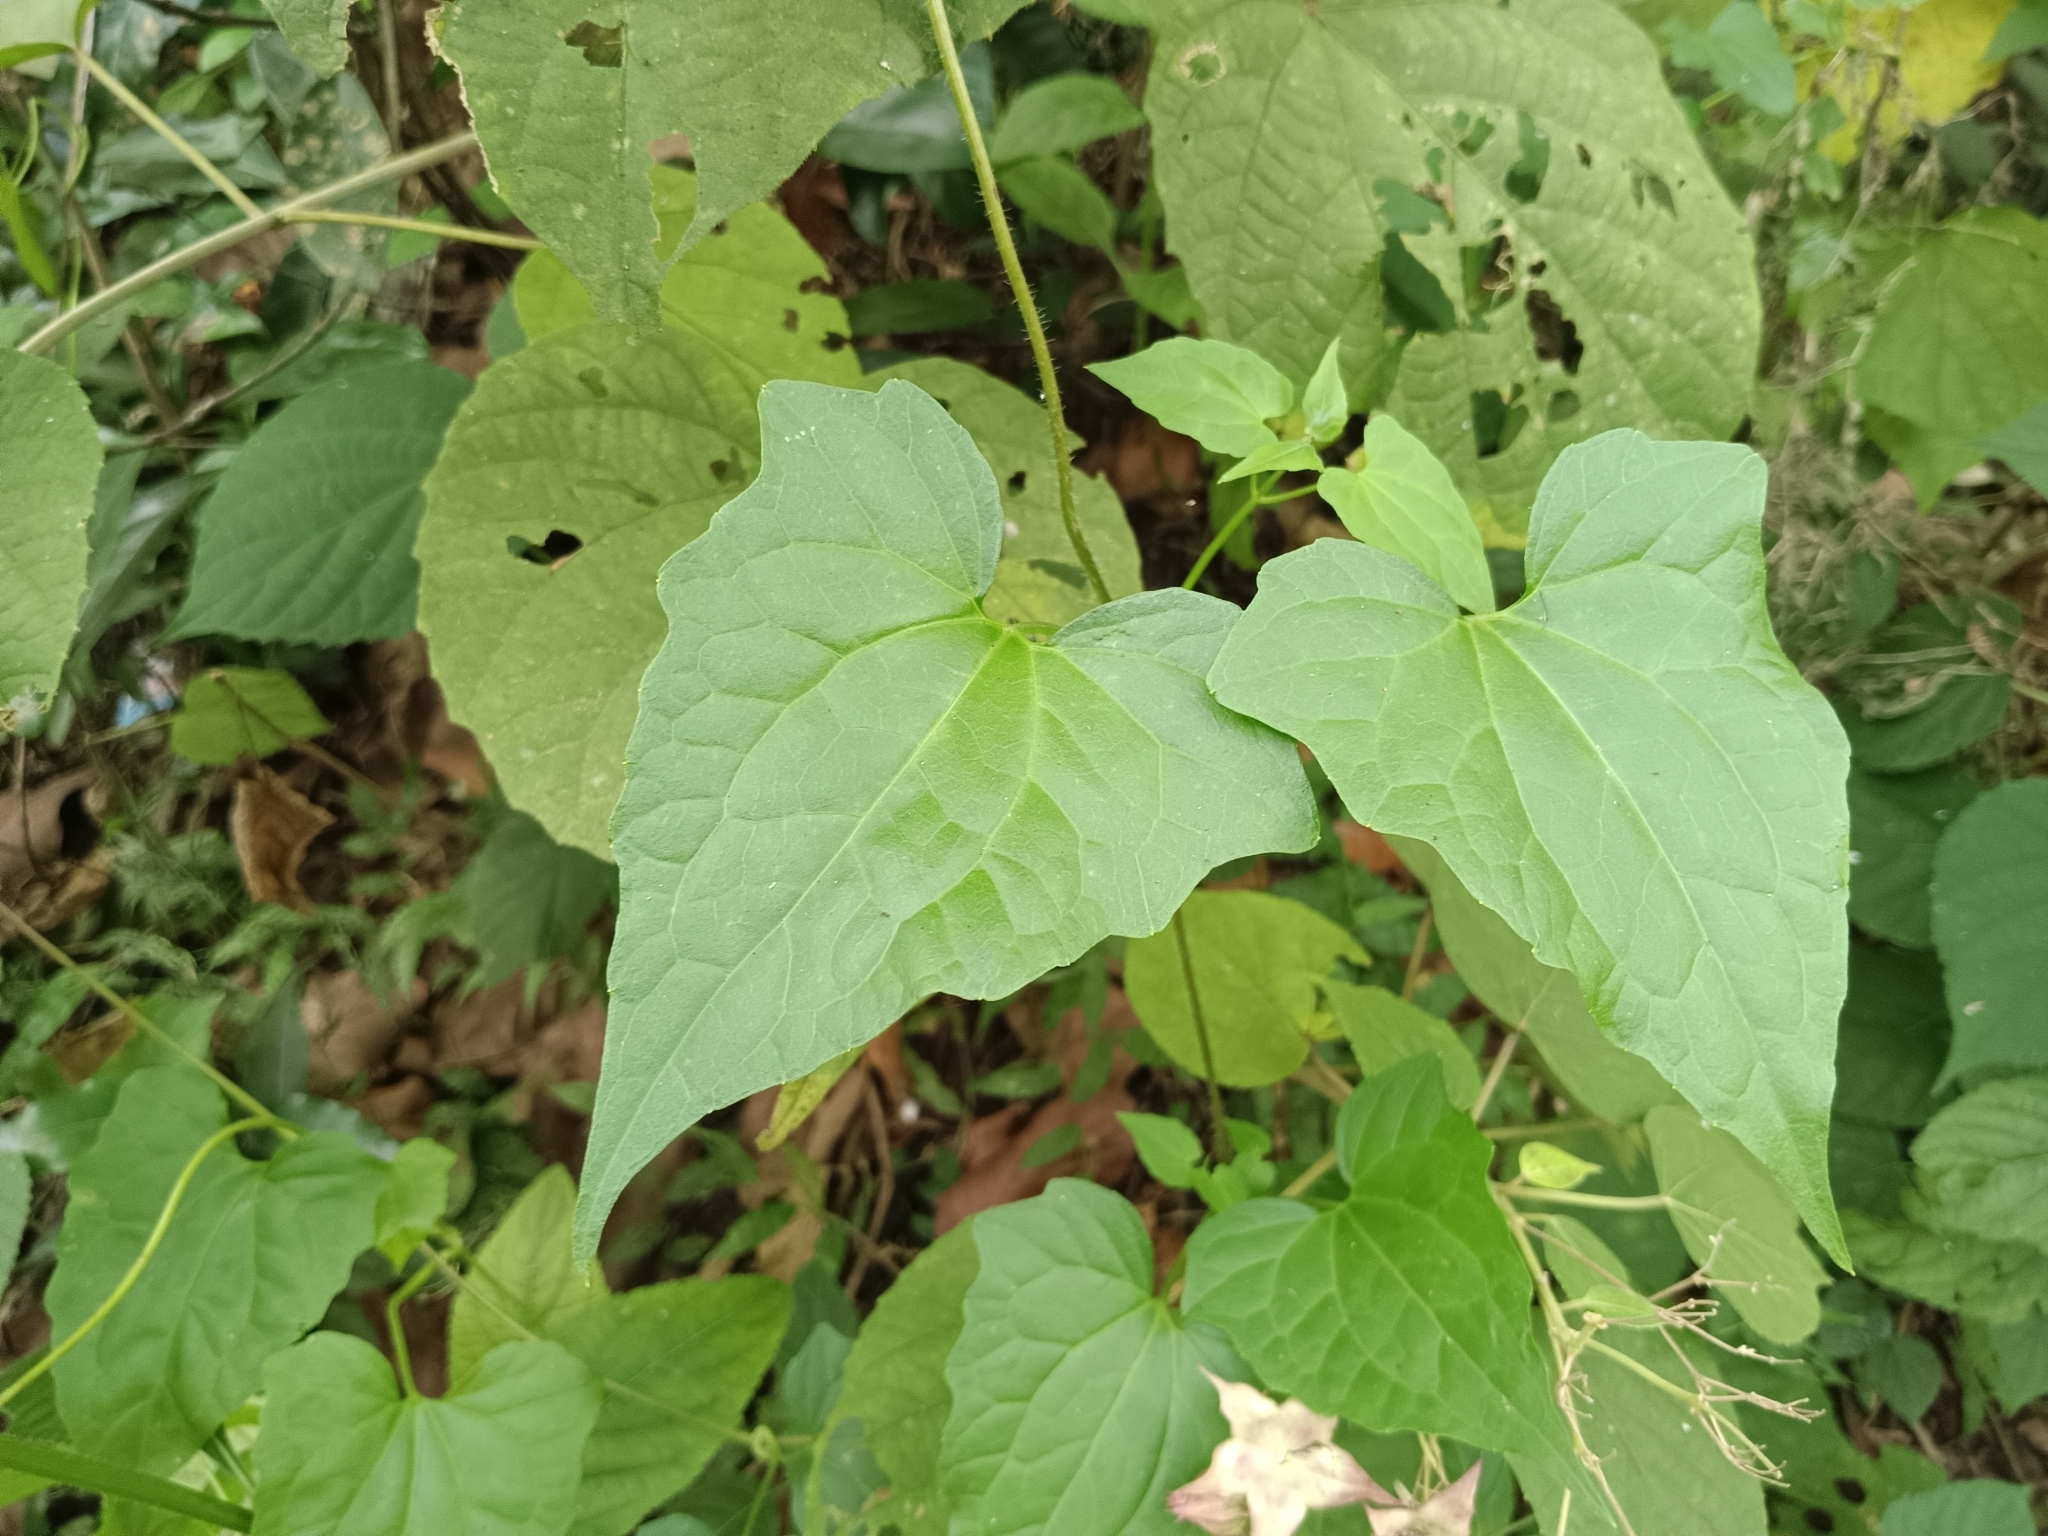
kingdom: Plantae
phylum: Tracheophyta
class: Magnoliopsida
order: Asterales
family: Asteraceae
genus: Mikania
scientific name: Mikania micrantha
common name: Mile-a-minute
